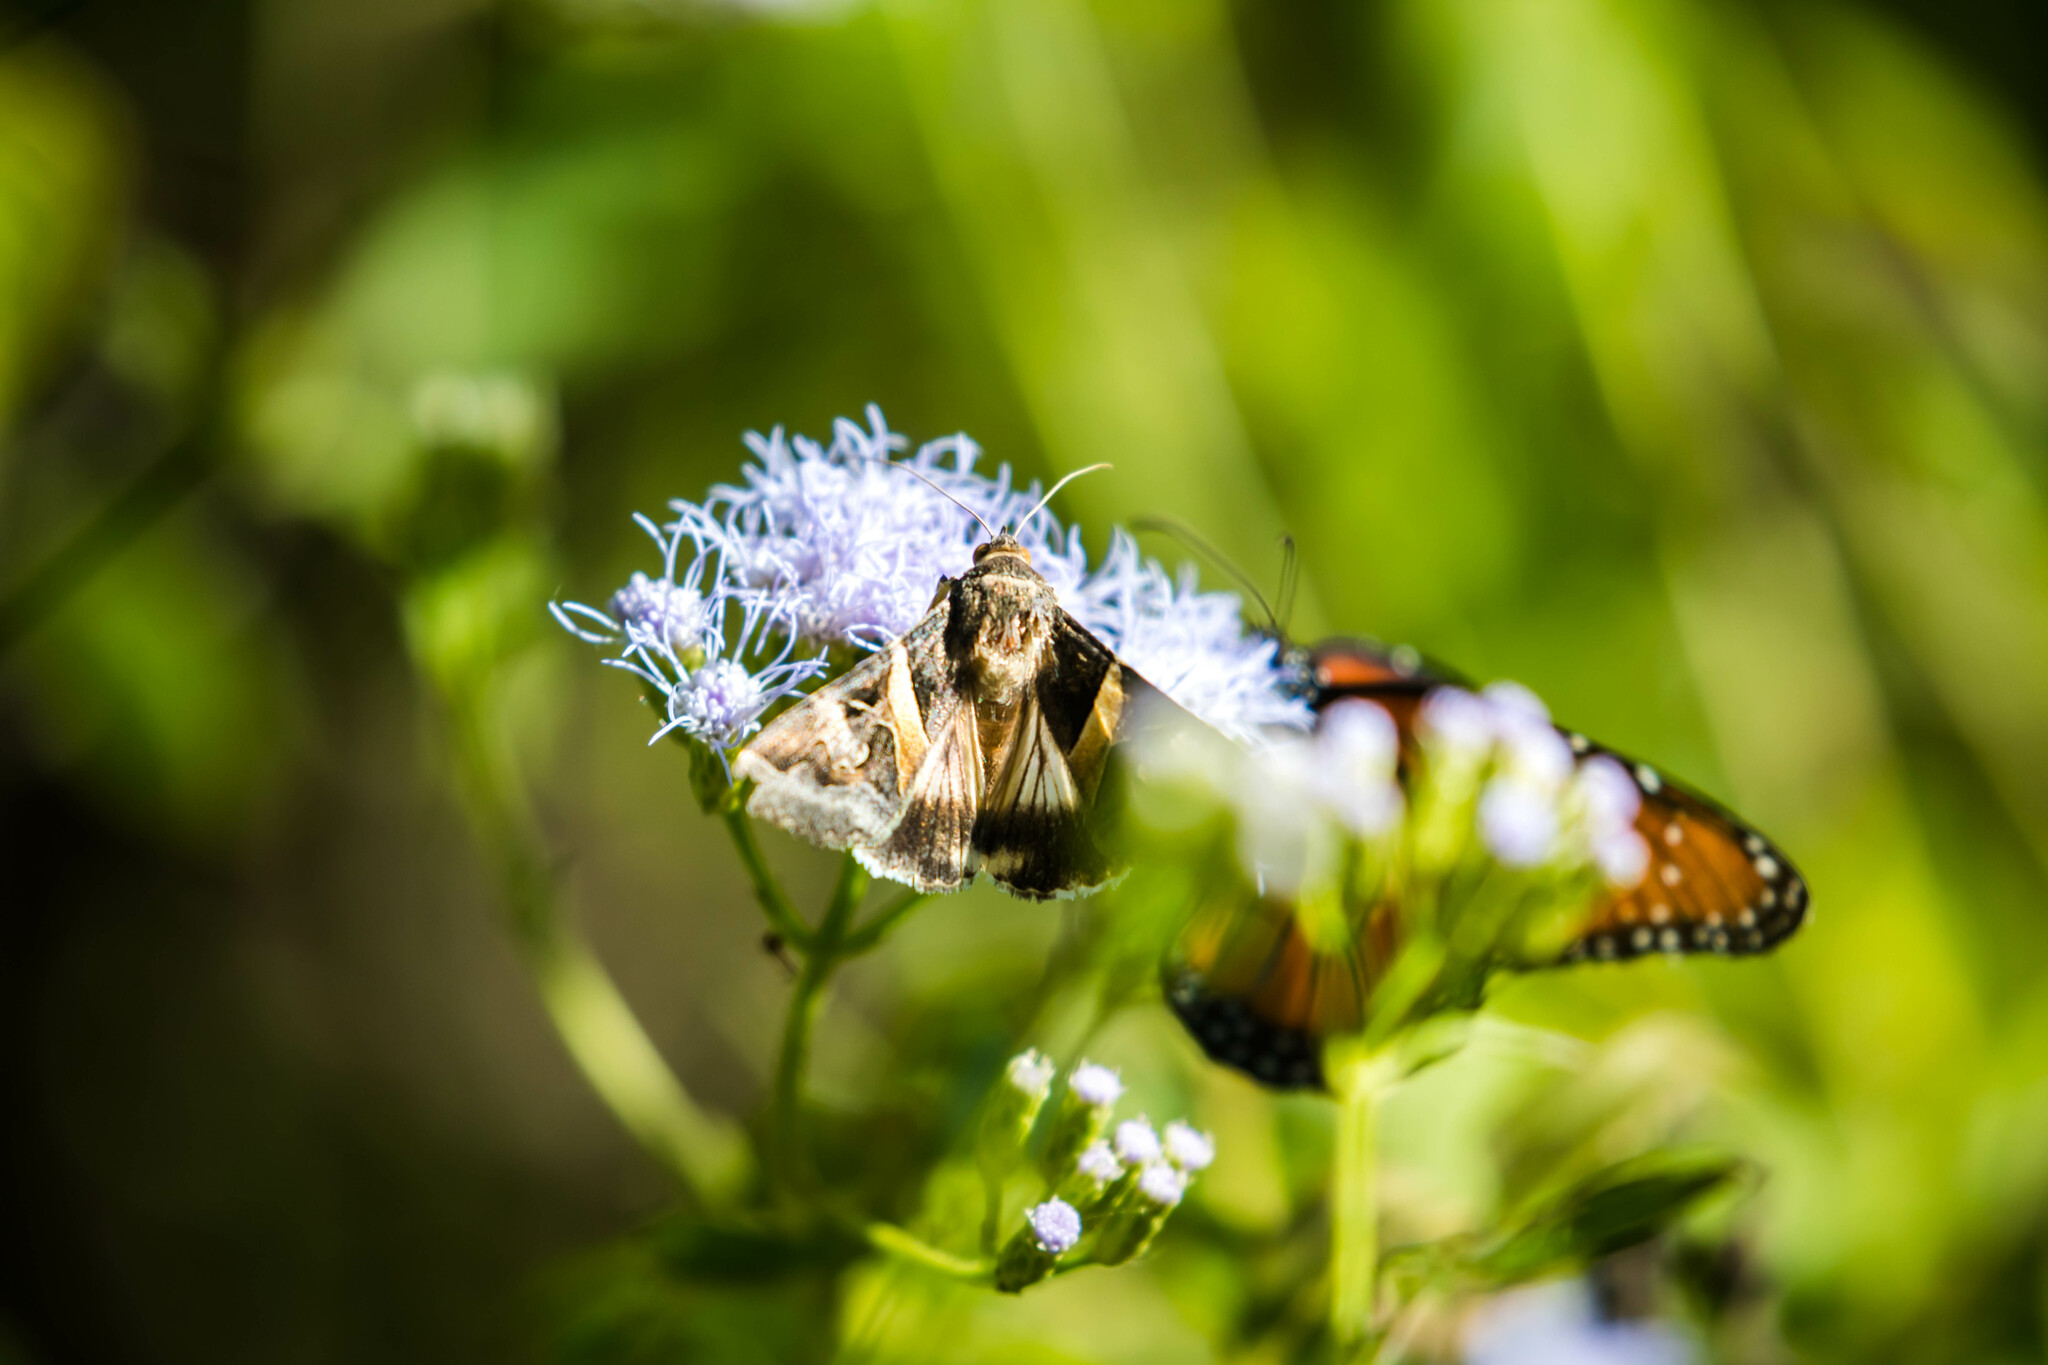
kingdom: Animalia
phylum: Arthropoda
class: Insecta
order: Lepidoptera
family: Erebidae
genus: Melipotis
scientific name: Melipotis indomita
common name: Moth
